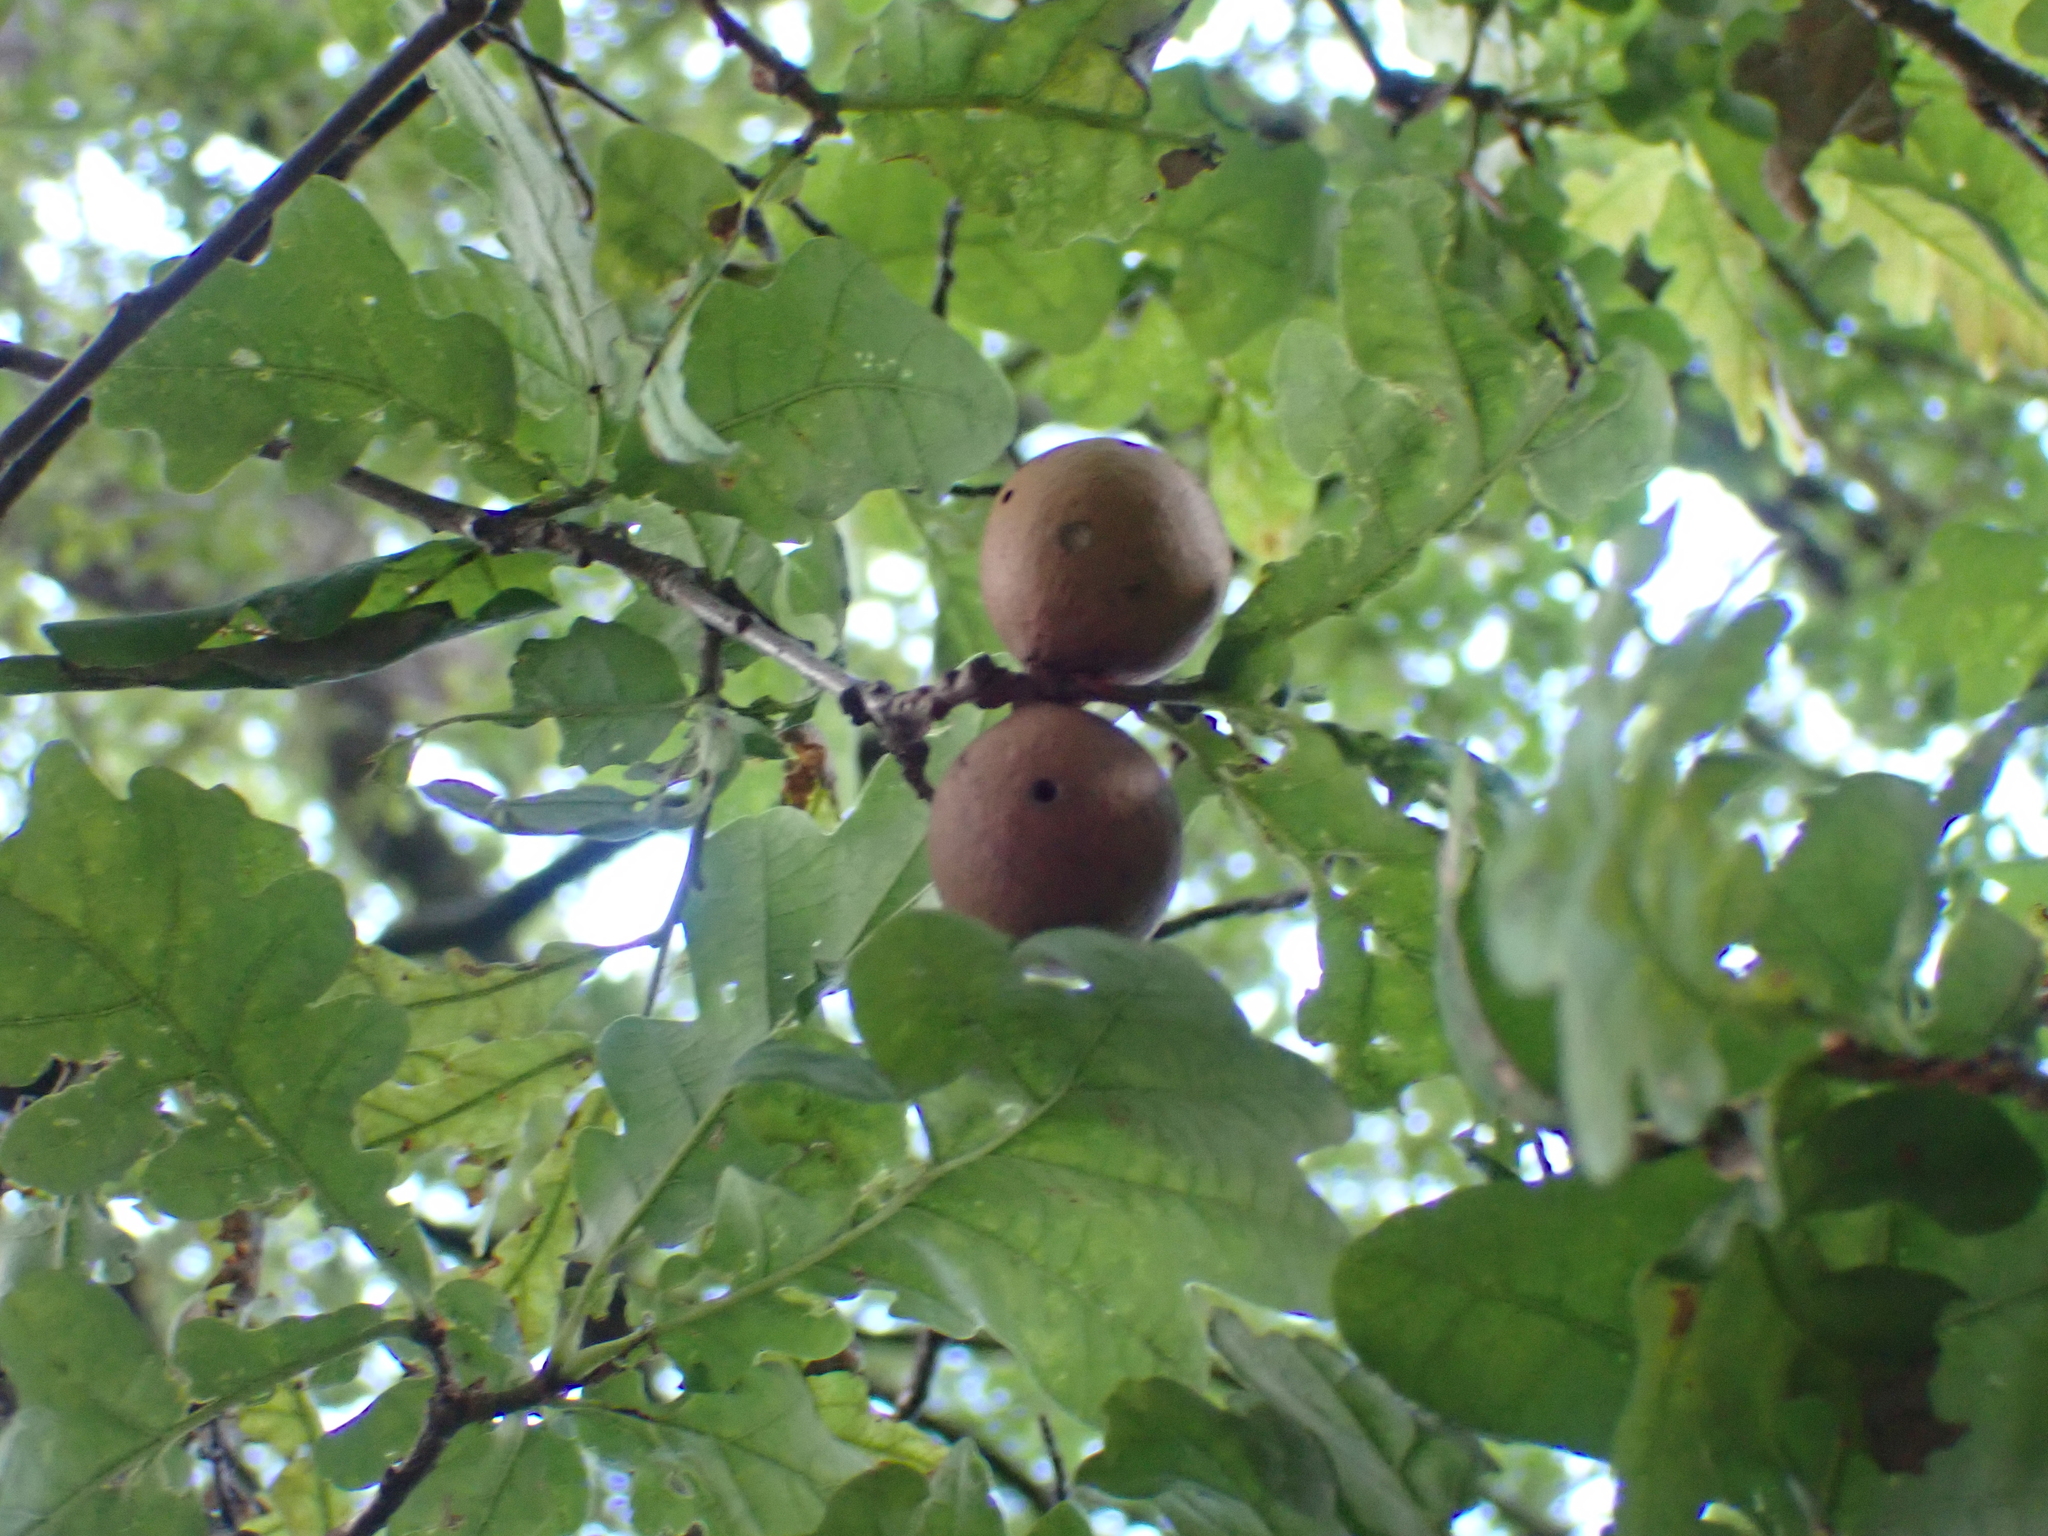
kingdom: Animalia
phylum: Arthropoda
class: Insecta
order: Hymenoptera
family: Cynipidae
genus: Andricus
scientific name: Andricus kollari
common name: Marble gall
